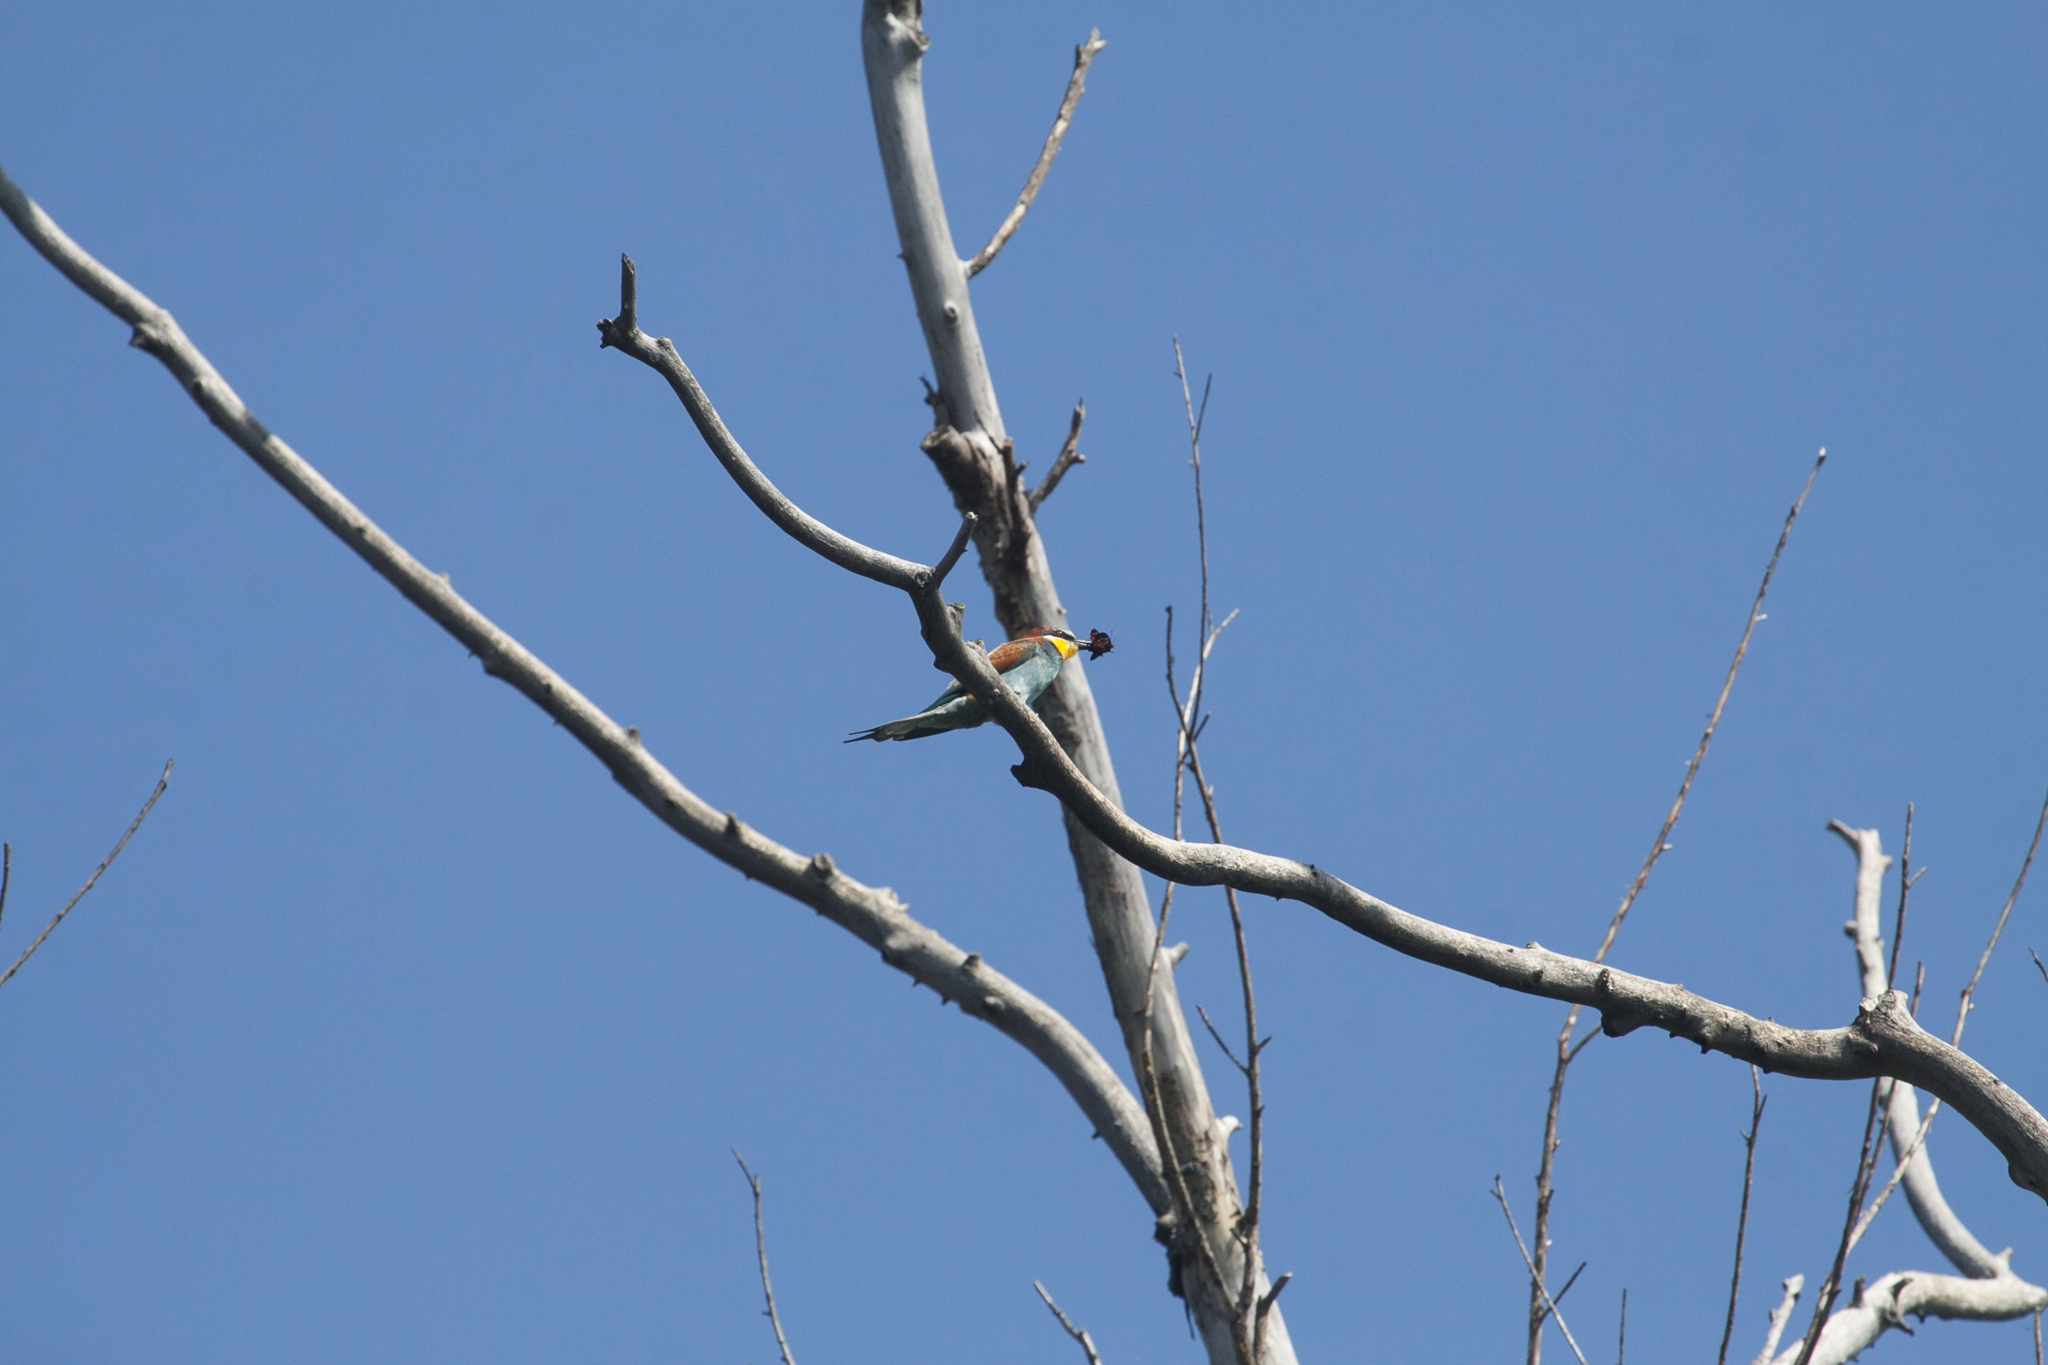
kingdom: Animalia
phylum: Chordata
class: Aves
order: Coraciiformes
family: Meropidae
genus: Merops
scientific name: Merops apiaster
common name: European bee-eater
